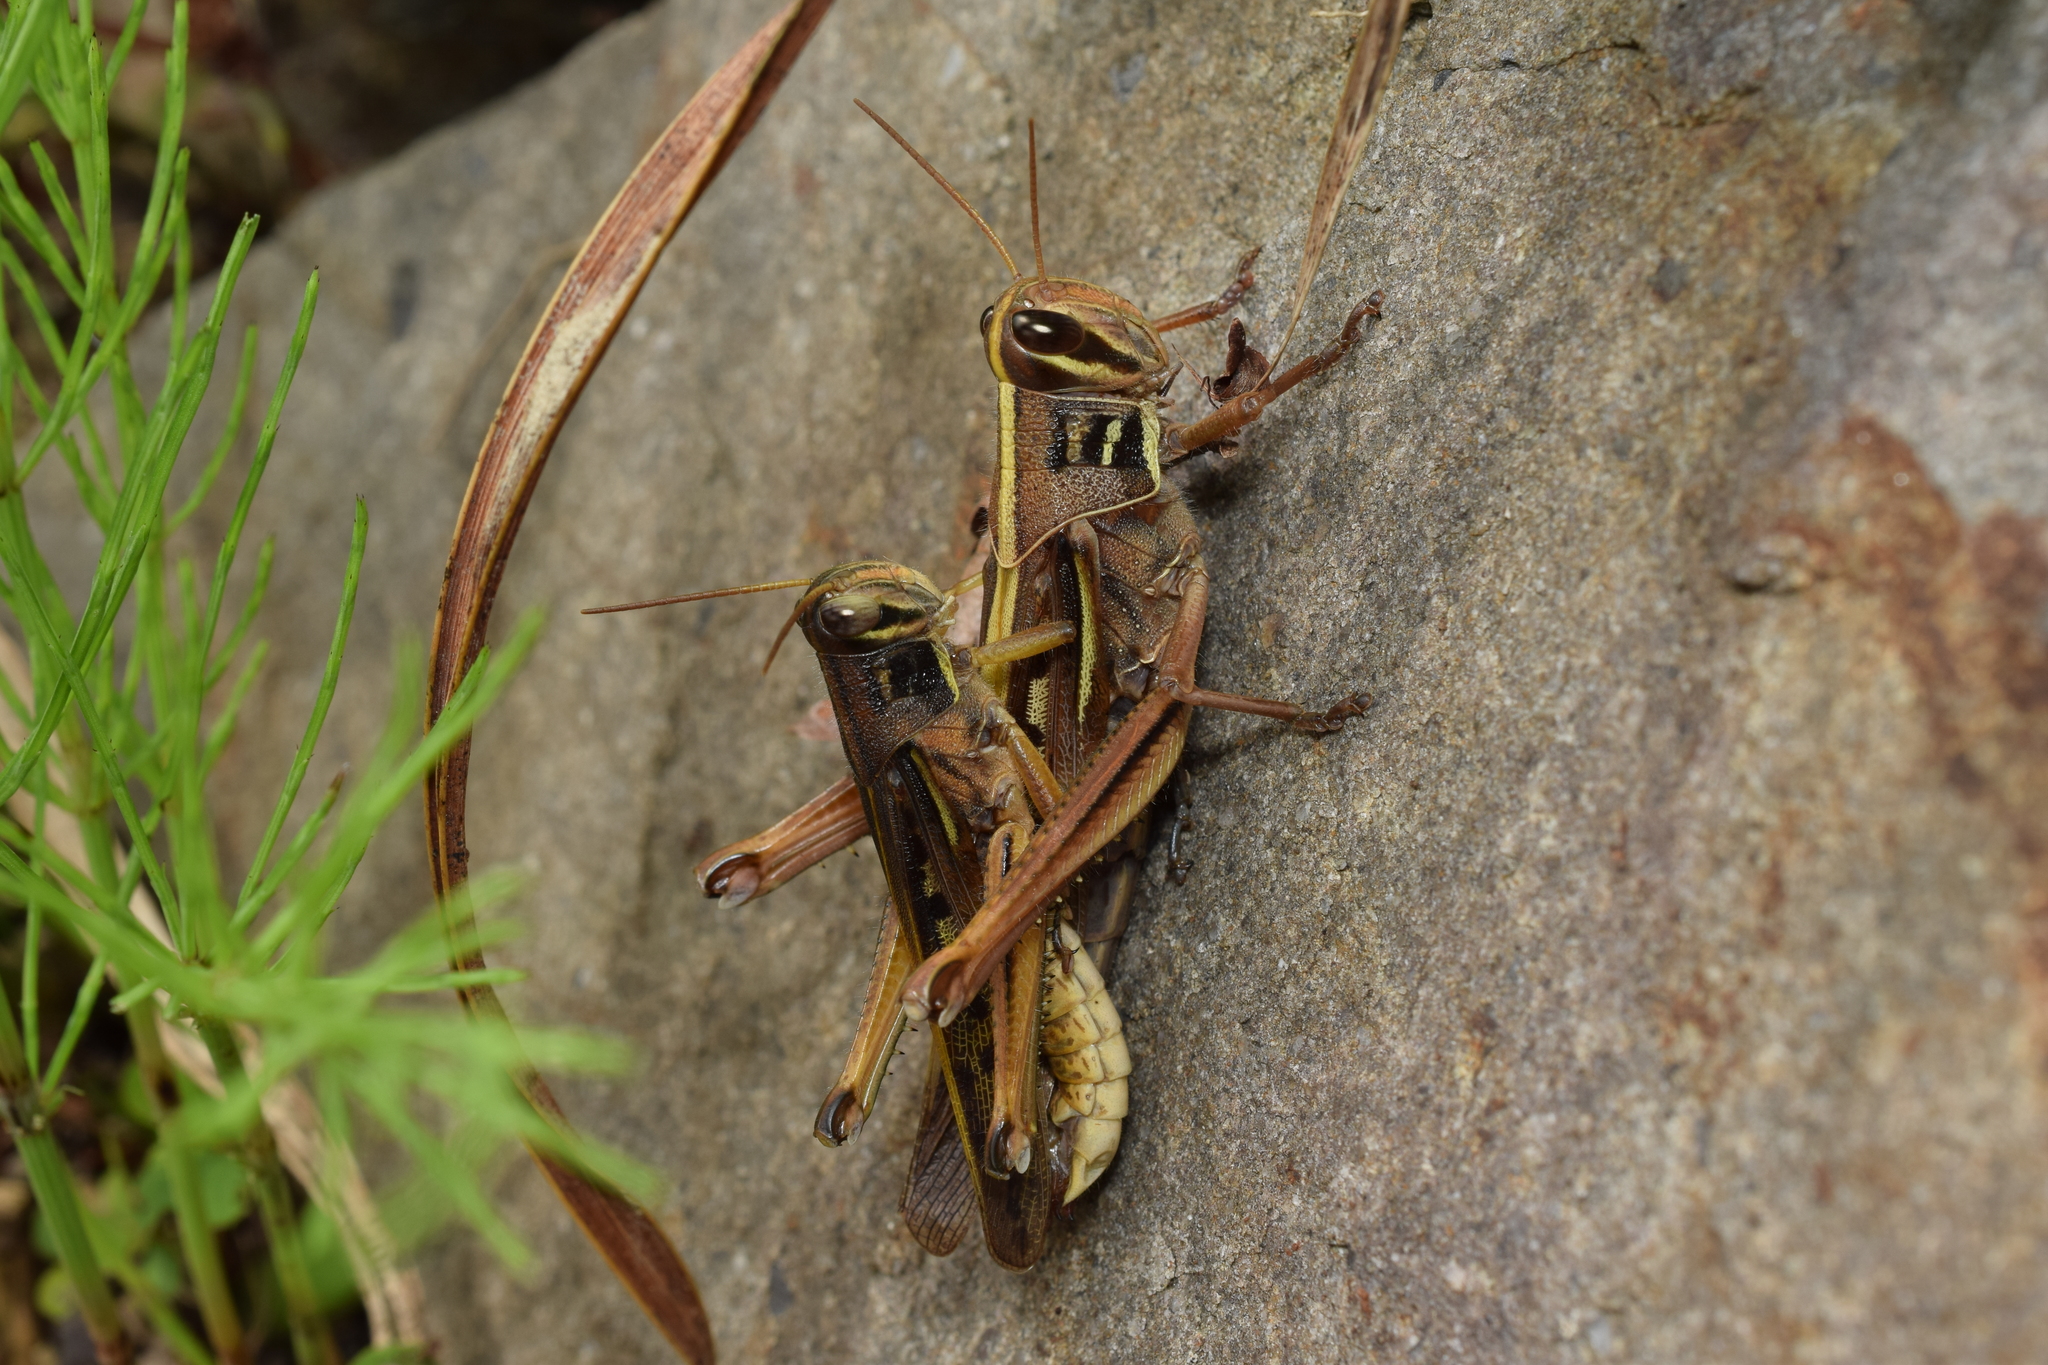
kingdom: Animalia
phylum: Arthropoda
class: Insecta
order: Orthoptera
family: Acrididae
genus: Patanga
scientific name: Patanga japonica
